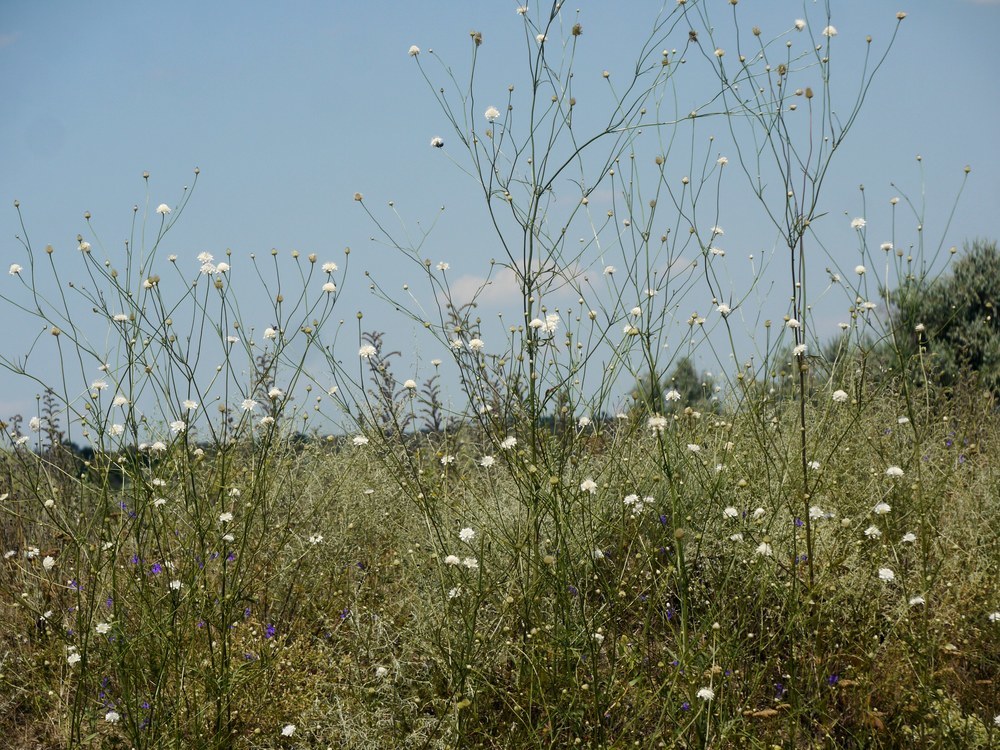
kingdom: Plantae
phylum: Tracheophyta
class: Magnoliopsida
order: Dipsacales
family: Caprifoliaceae
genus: Cephalaria
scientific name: Cephalaria transsylvanica
